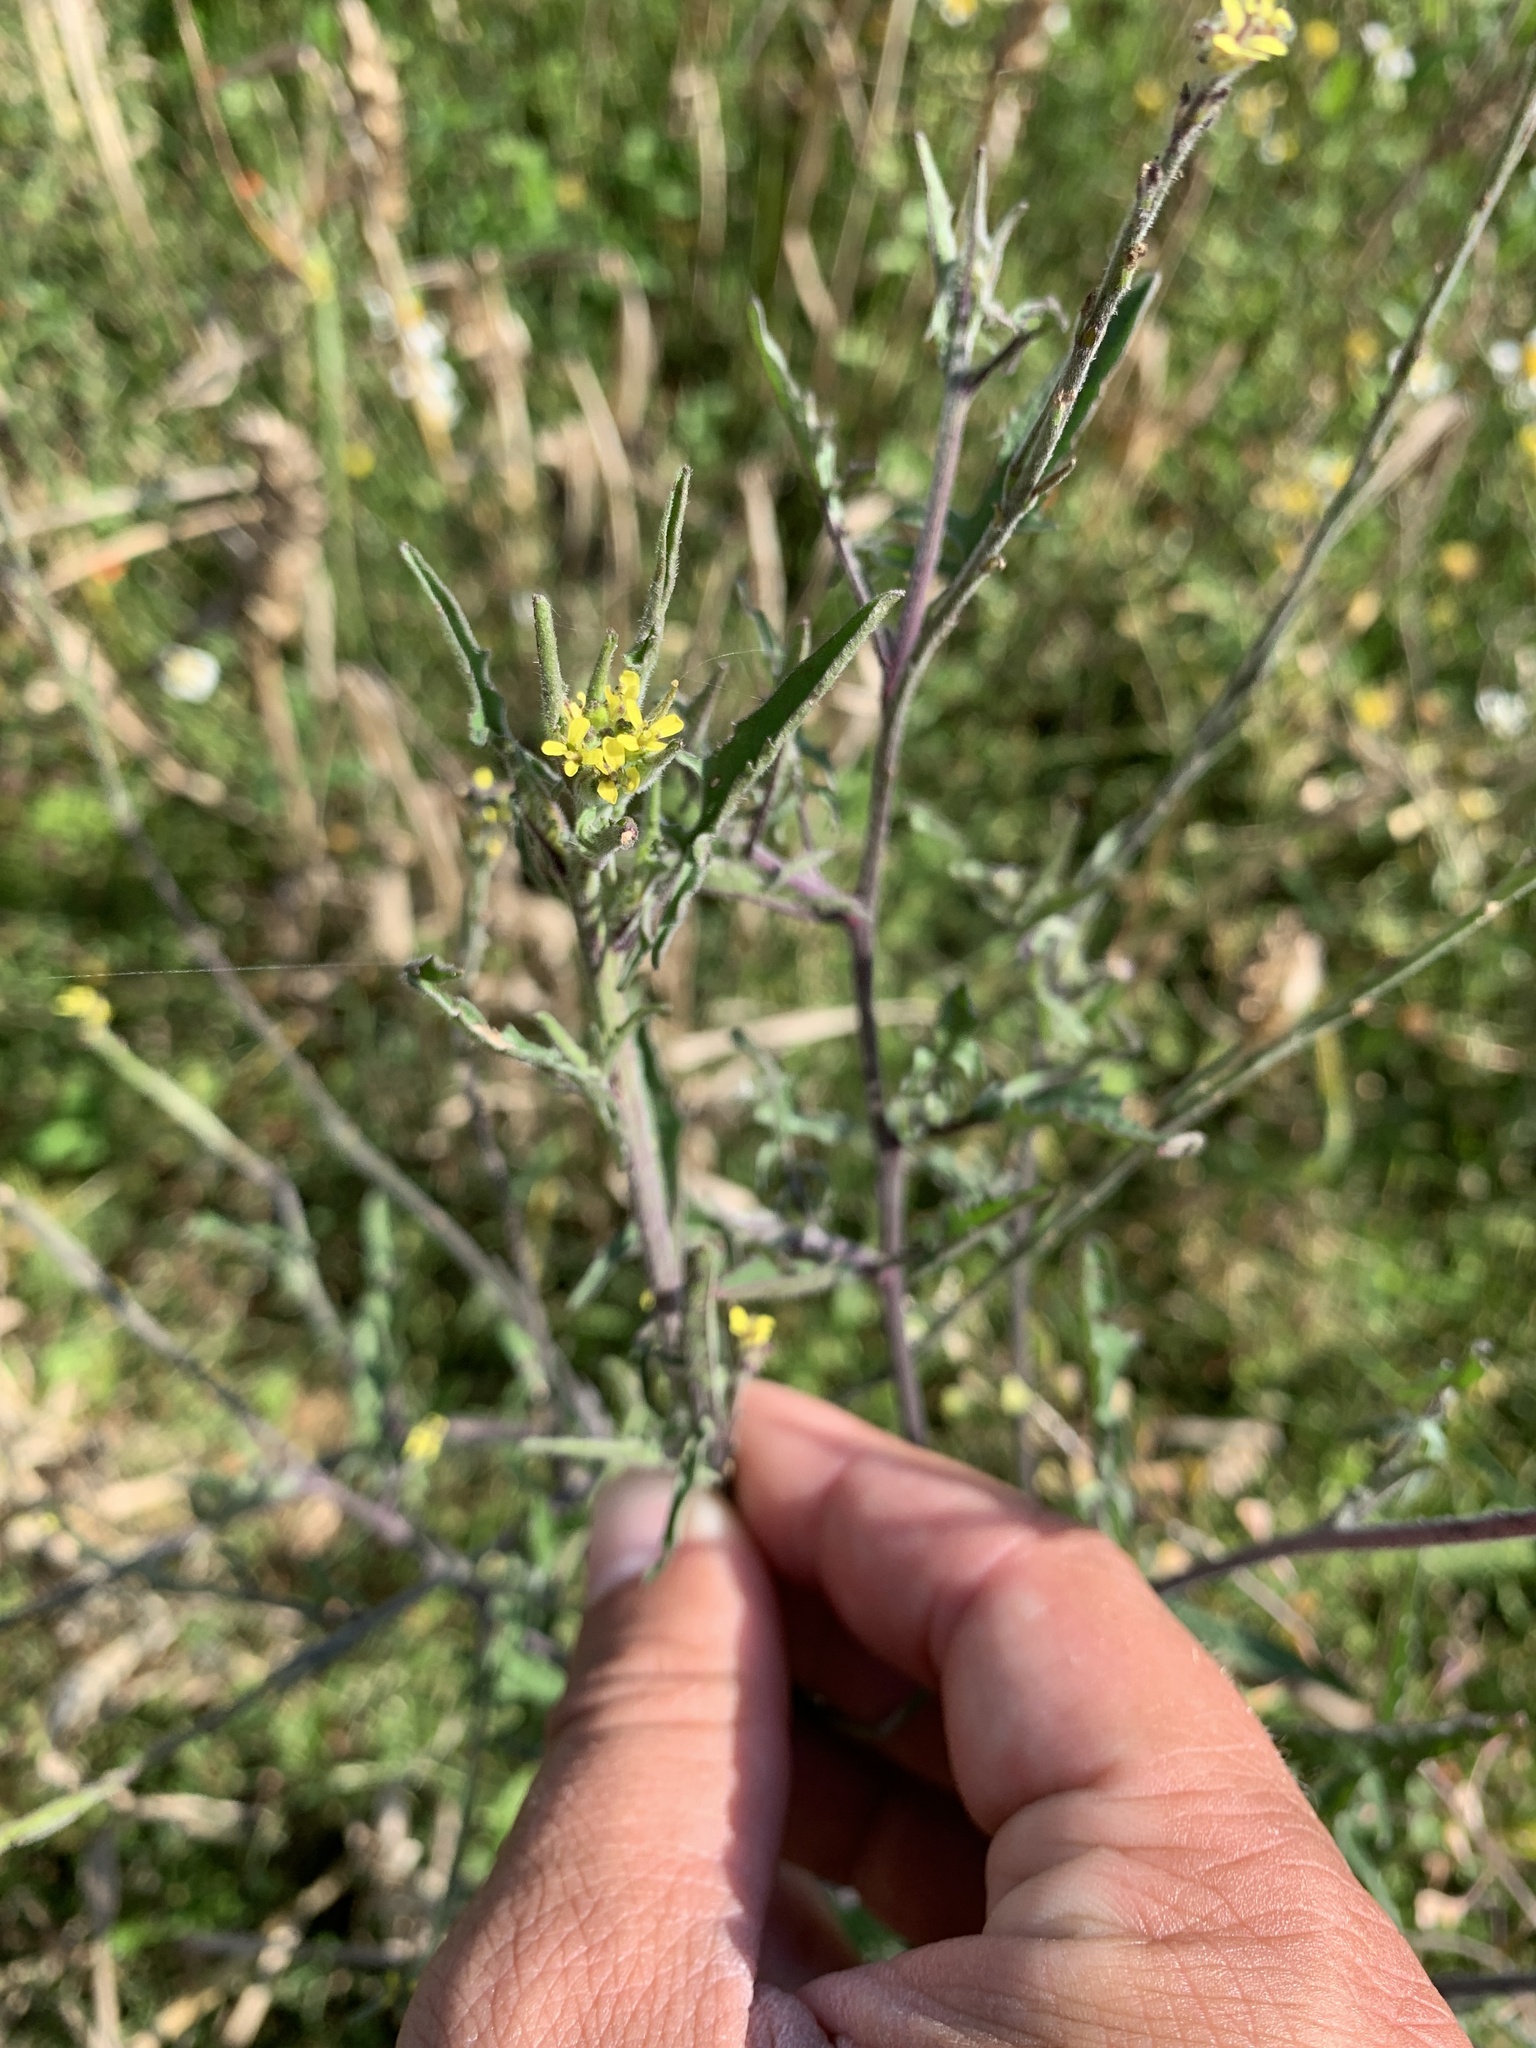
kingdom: Plantae
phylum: Tracheophyta
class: Magnoliopsida
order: Brassicales
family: Brassicaceae
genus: Sisymbrium
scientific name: Sisymbrium officinale
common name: Hedge mustard
